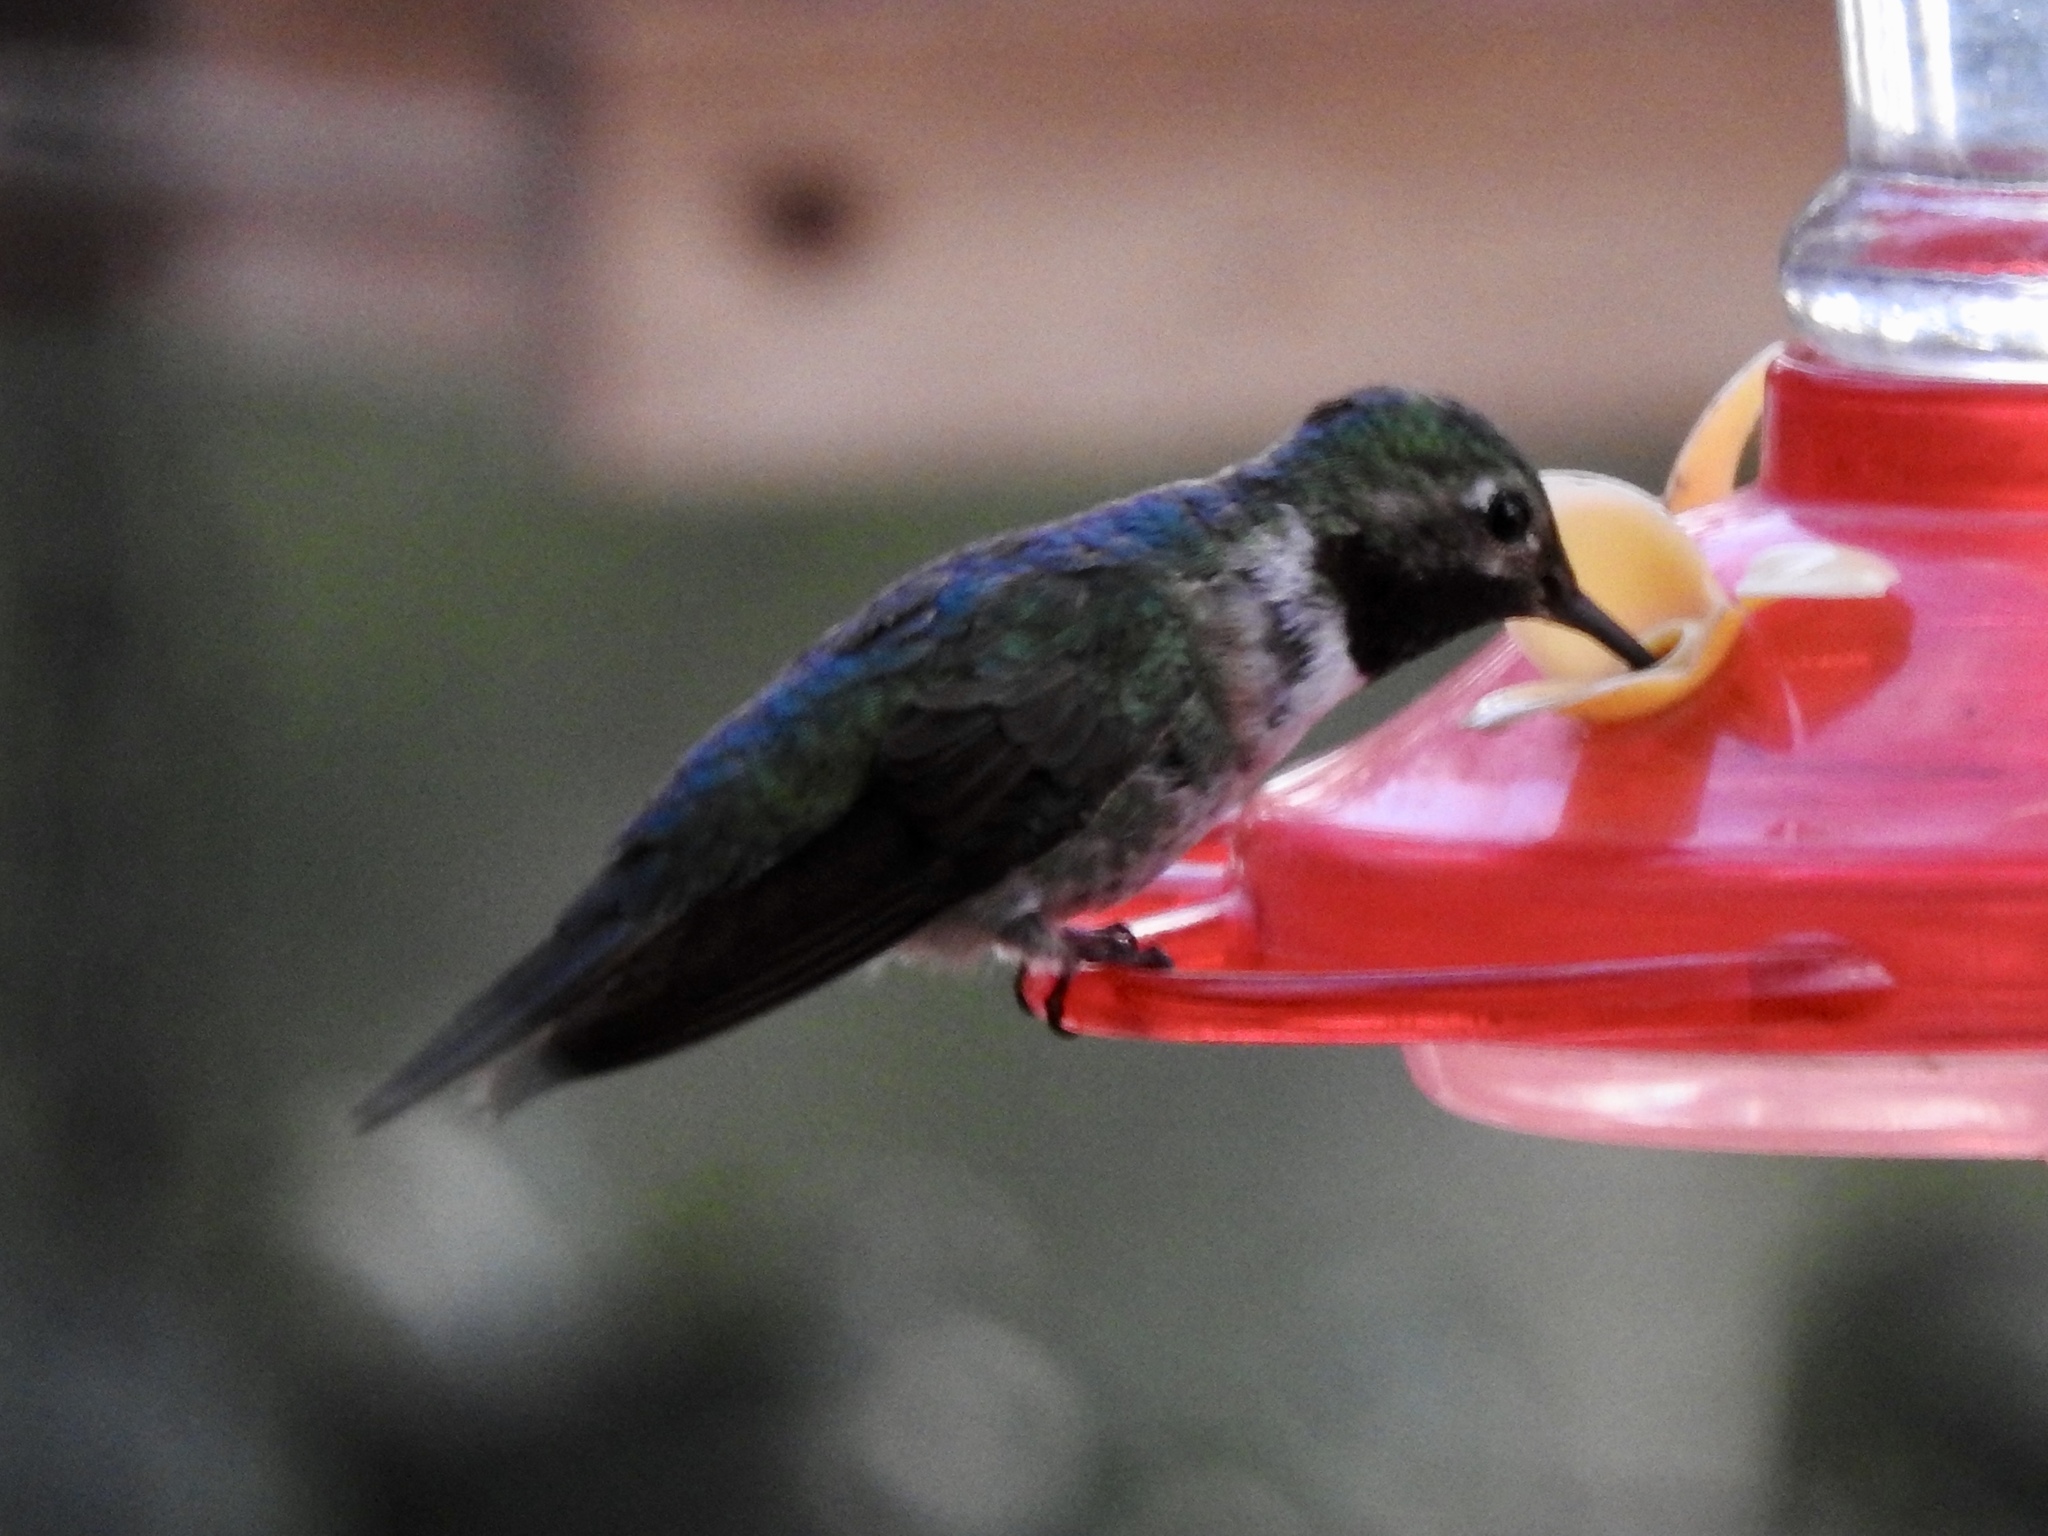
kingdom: Animalia
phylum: Chordata
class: Aves
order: Apodiformes
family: Trochilidae
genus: Selasphorus
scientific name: Selasphorus platycercus
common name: Broad-tailed hummingbird
